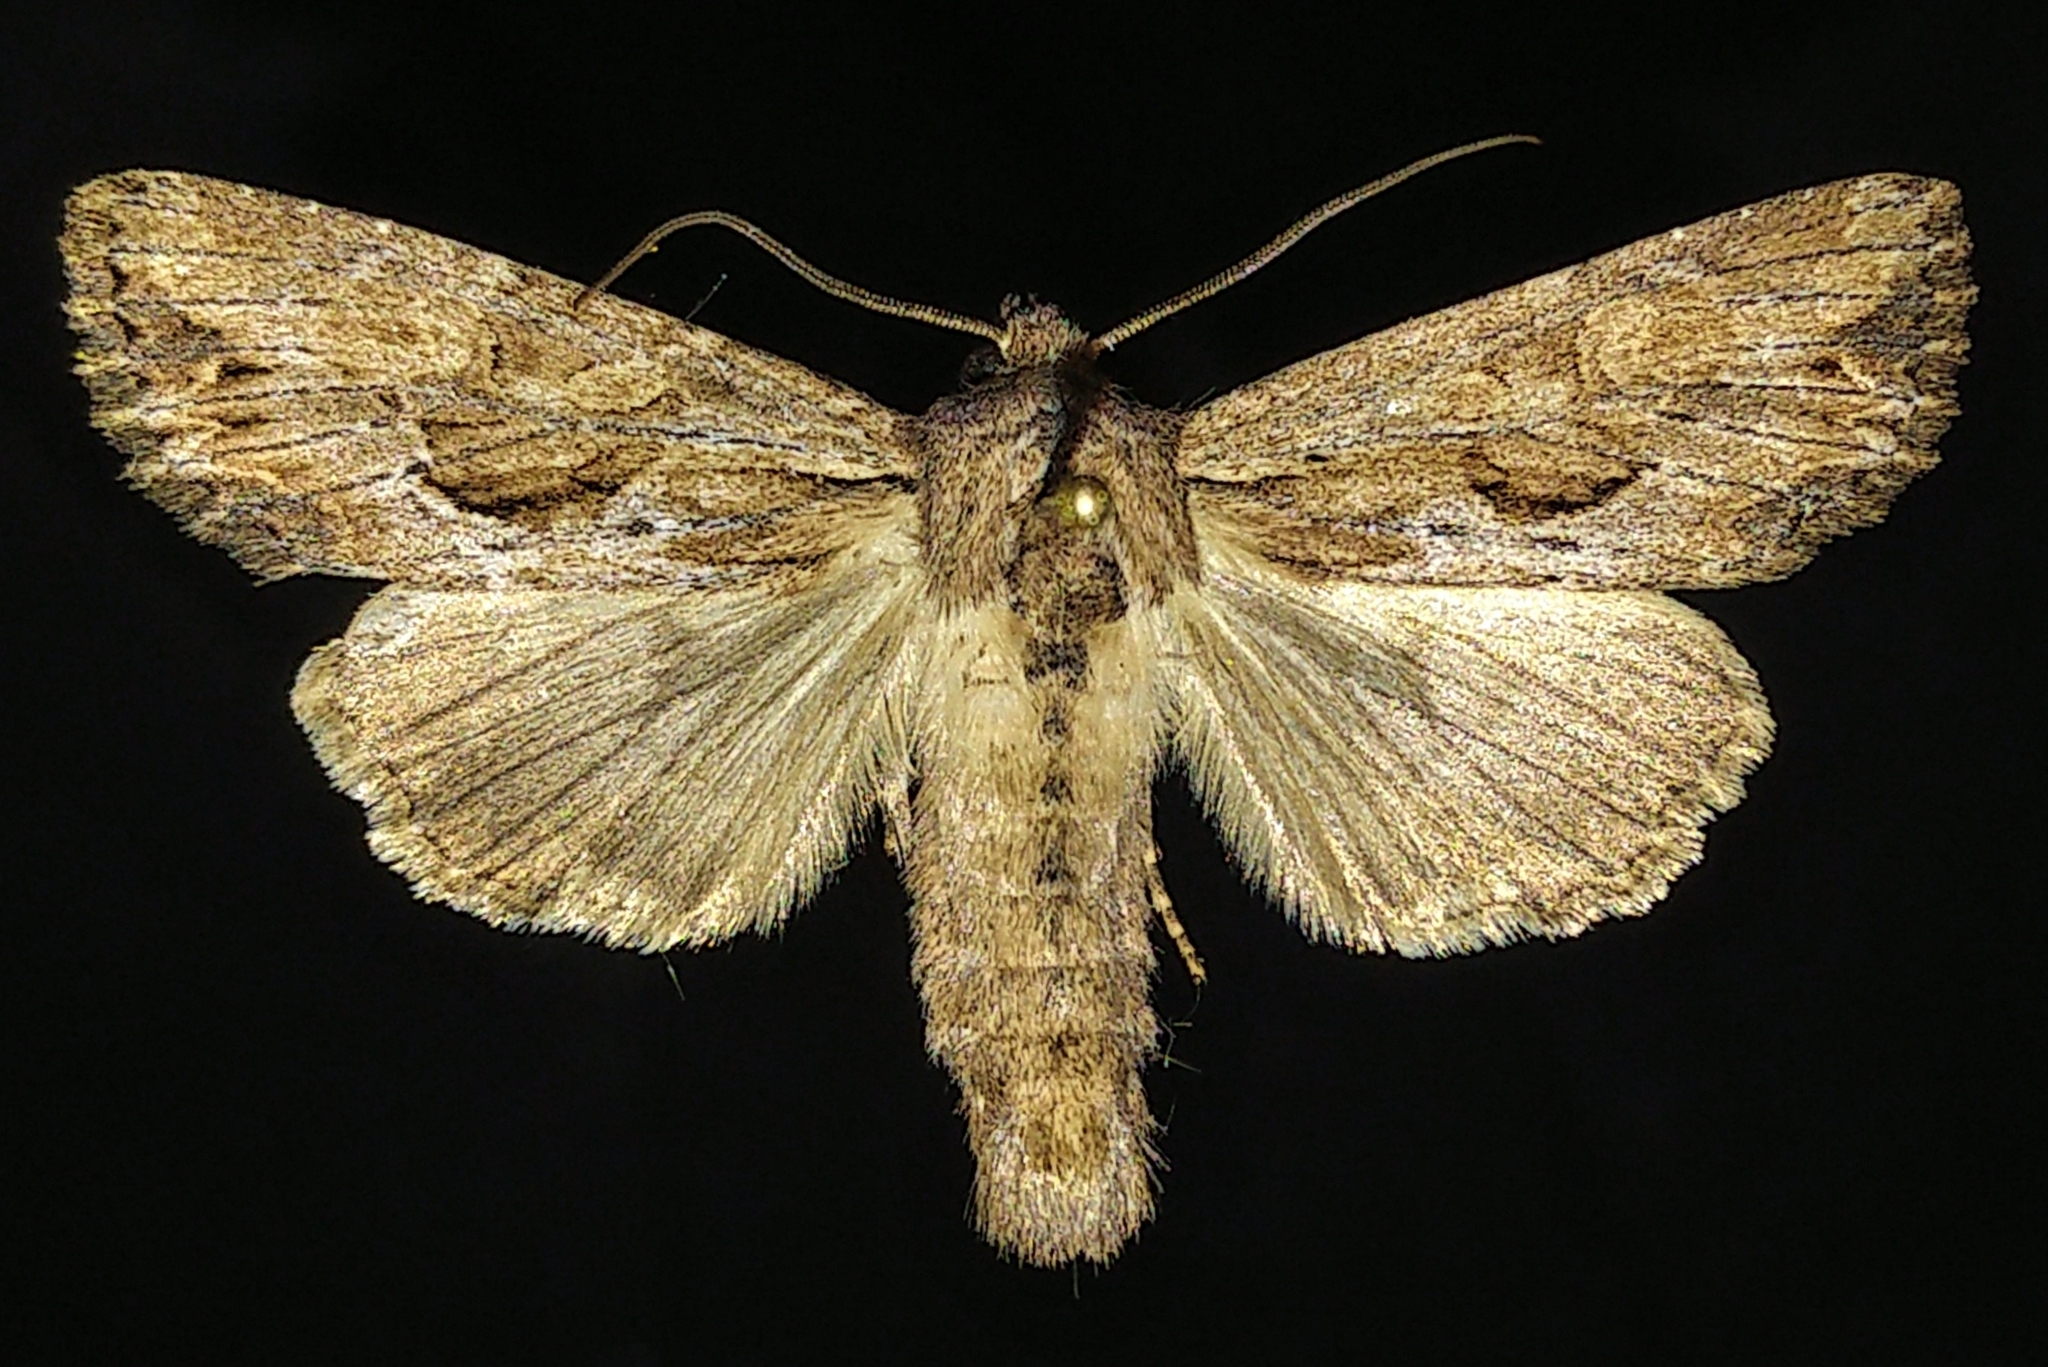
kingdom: Animalia
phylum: Arthropoda
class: Insecta
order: Lepidoptera
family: Noctuidae
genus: Apamea
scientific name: Apamea lignicolora
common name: Wood-colored apamea moth
